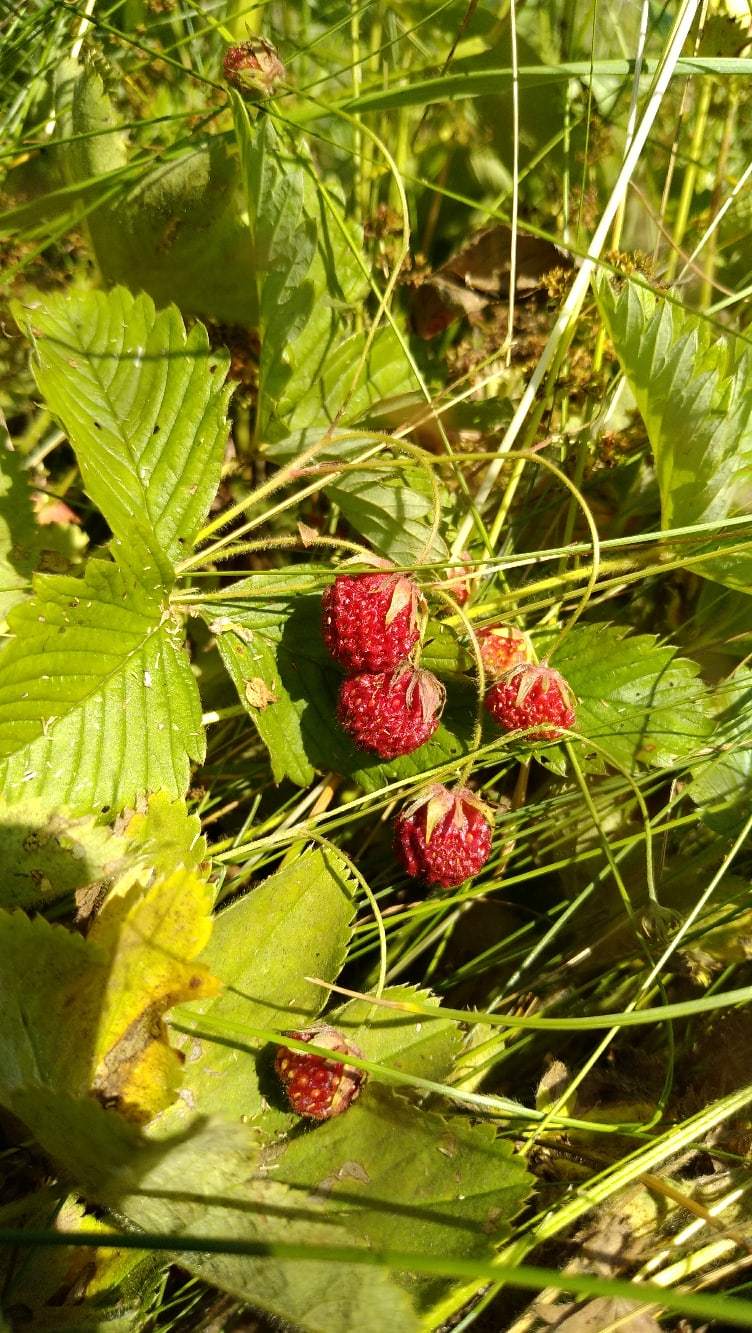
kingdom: Plantae
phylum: Tracheophyta
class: Magnoliopsida
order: Rosales
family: Rosaceae
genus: Fragaria
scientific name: Fragaria viridis
